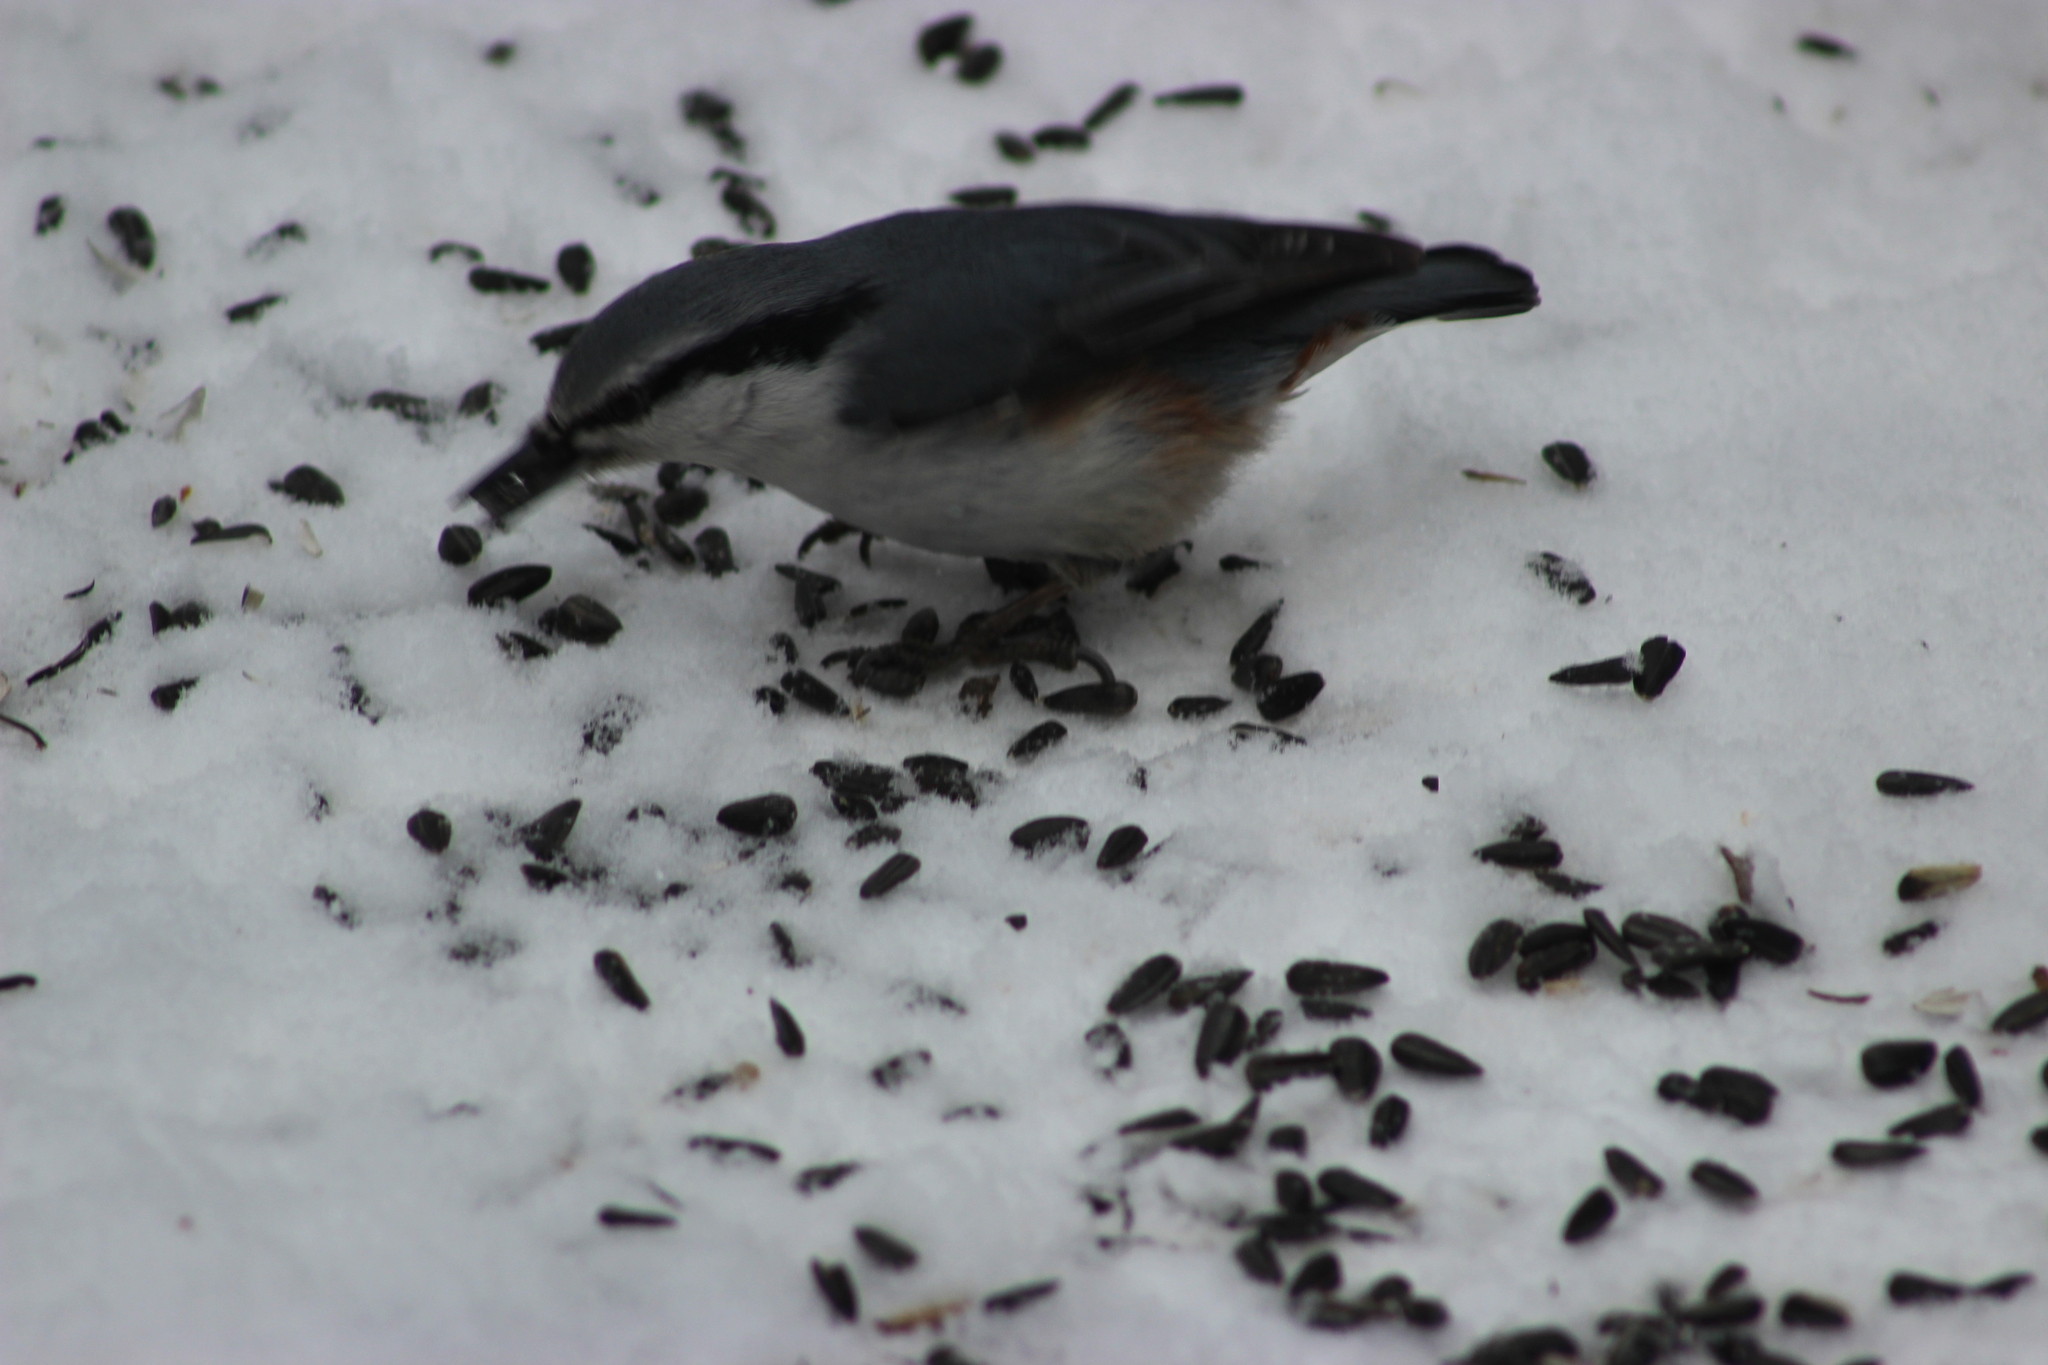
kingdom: Animalia
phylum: Chordata
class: Aves
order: Passeriformes
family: Sittidae
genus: Sitta
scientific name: Sitta europaea
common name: Eurasian nuthatch
